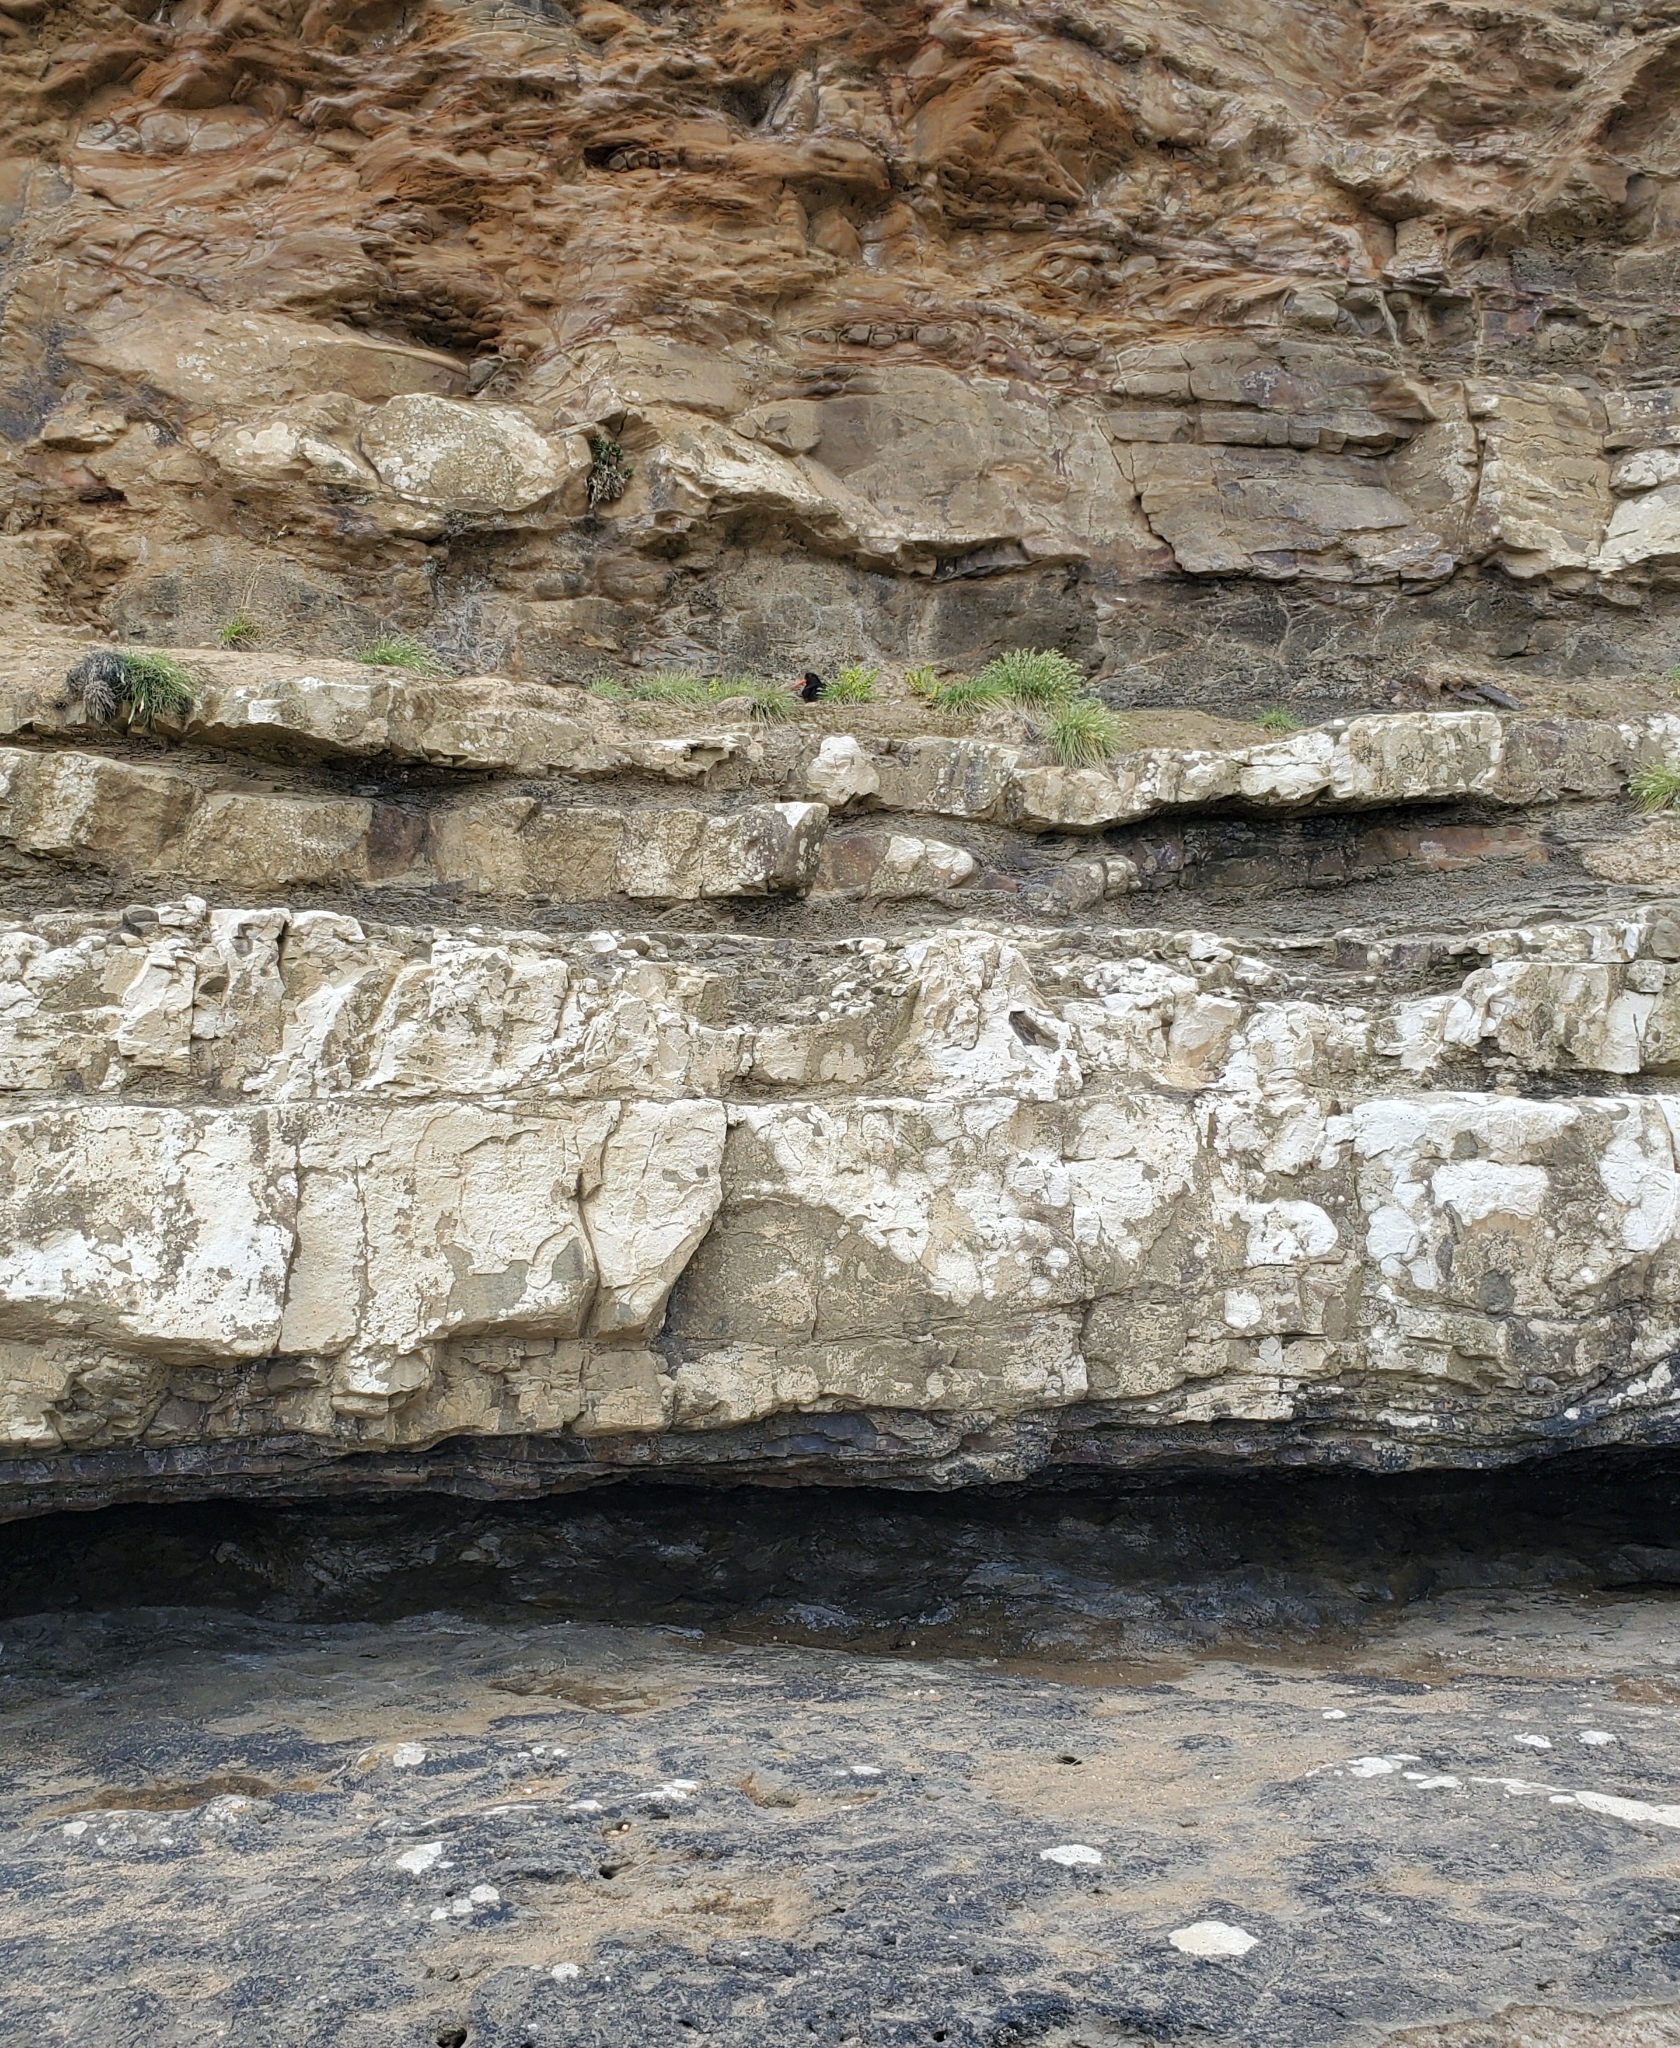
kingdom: Animalia
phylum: Chordata
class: Aves
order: Charadriiformes
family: Haematopodidae
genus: Haematopus
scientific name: Haematopus unicolor
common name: Variable oystercatcher
